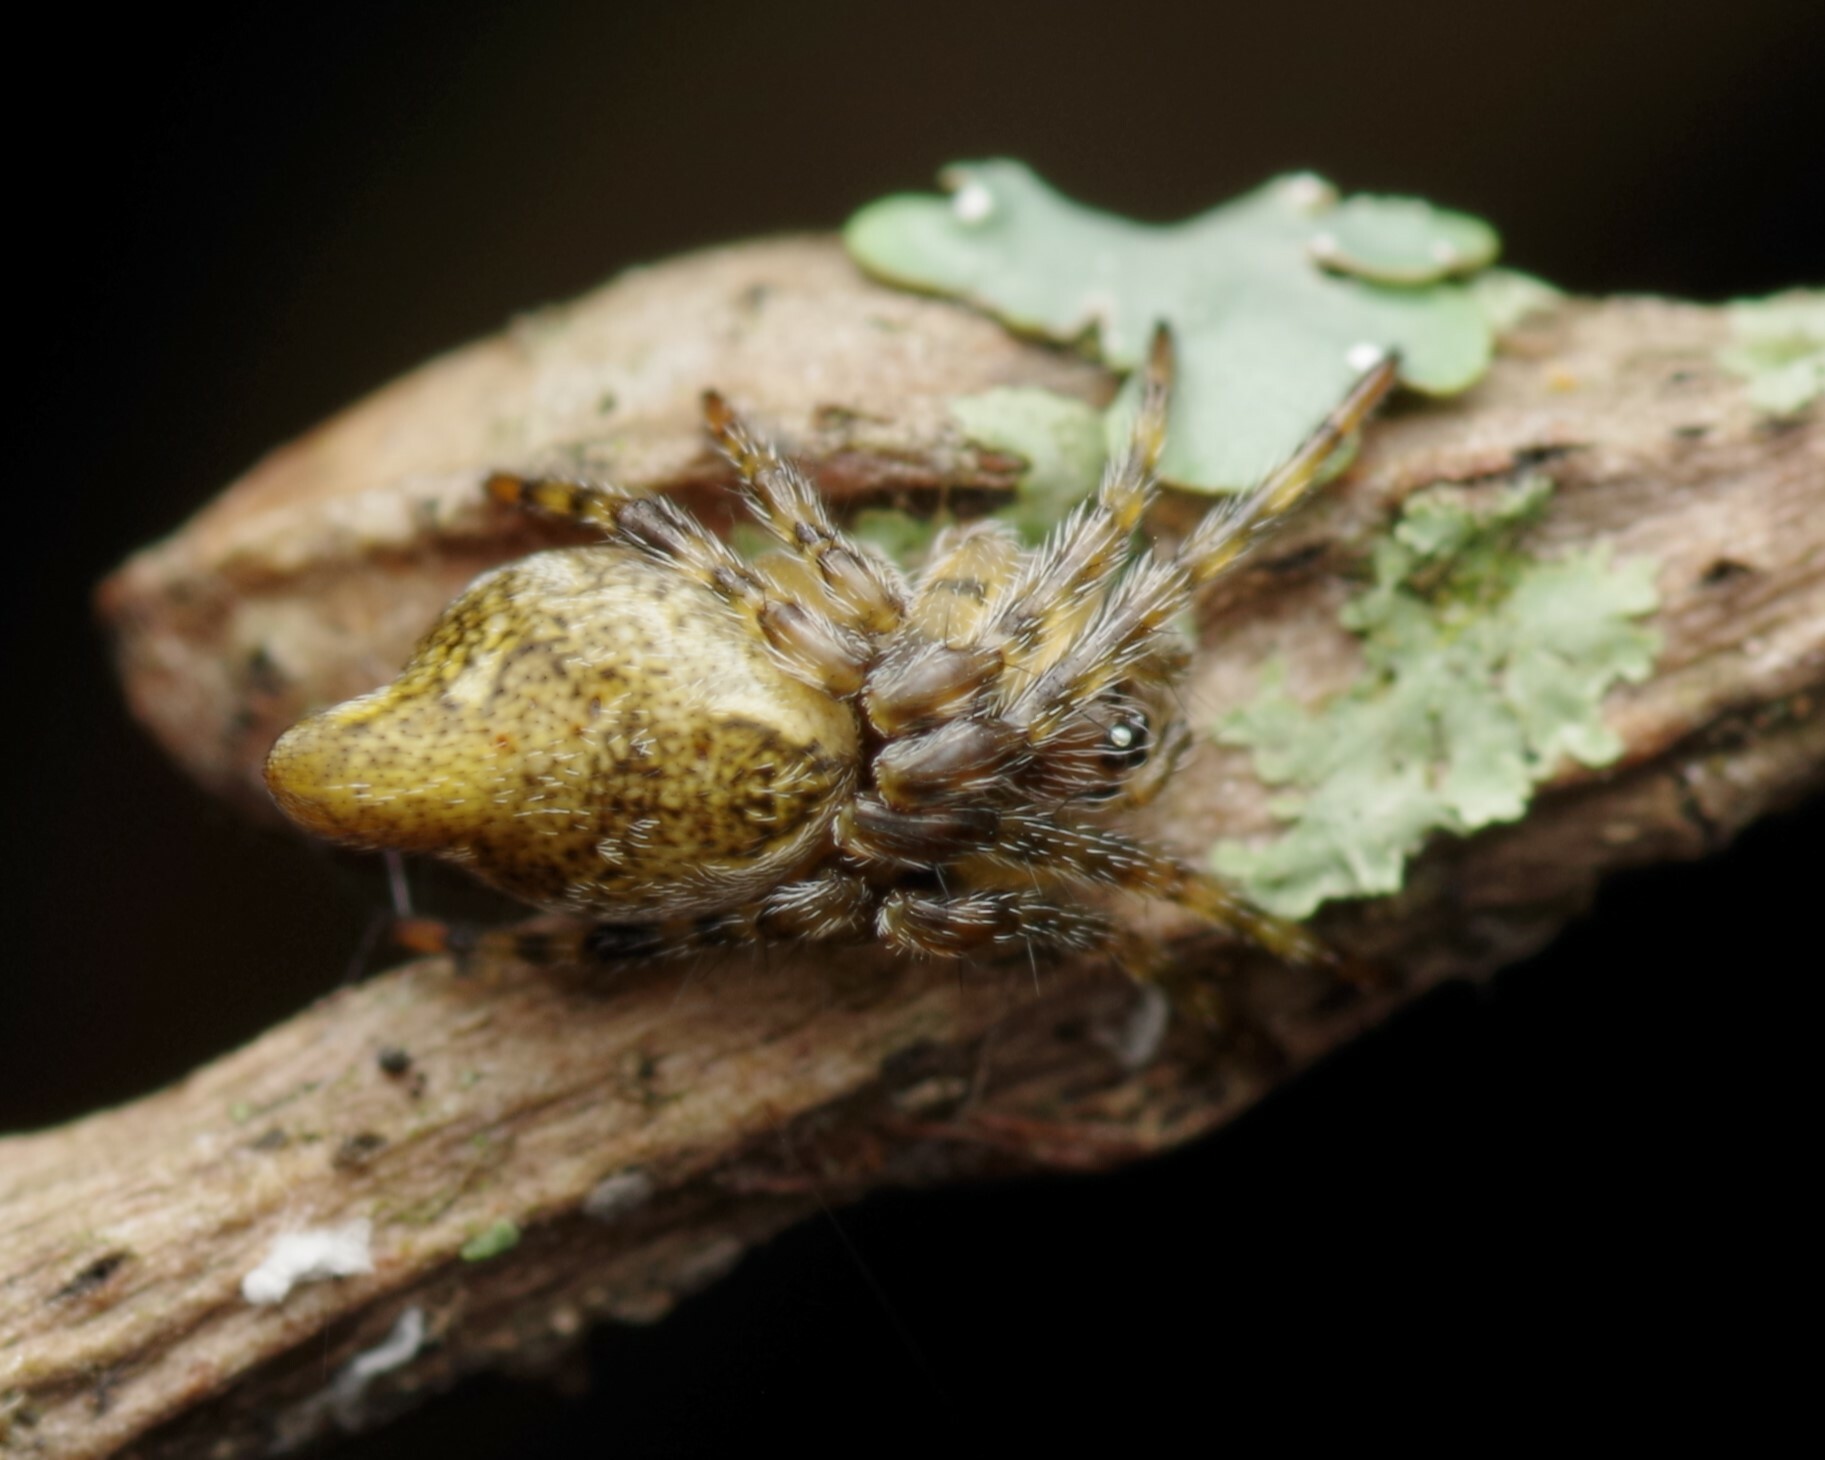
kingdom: Animalia
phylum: Arthropoda
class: Arachnida
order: Araneae
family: Araneidae
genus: Cyclosa
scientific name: Cyclosa
